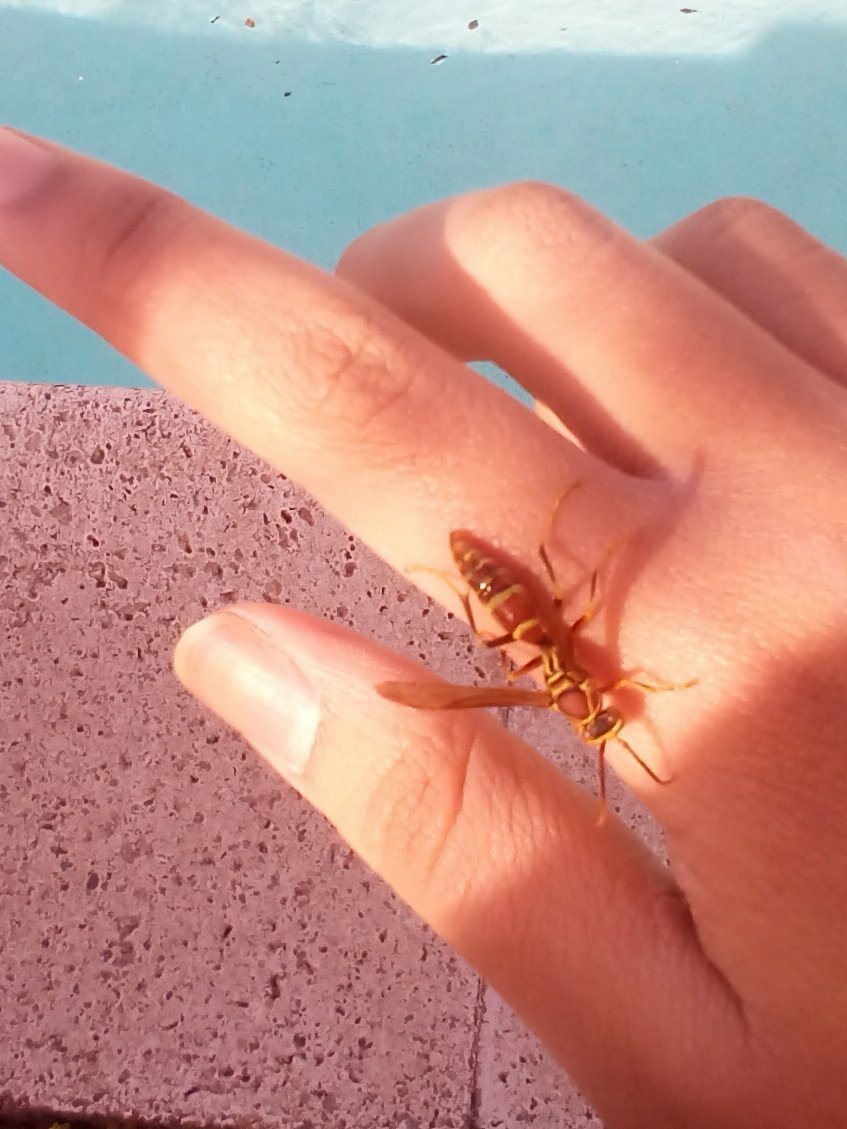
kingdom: Animalia
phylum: Arthropoda
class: Insecta
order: Hymenoptera
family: Eumenidae
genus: Polistes
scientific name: Polistes exclamans
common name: Paper wasp
